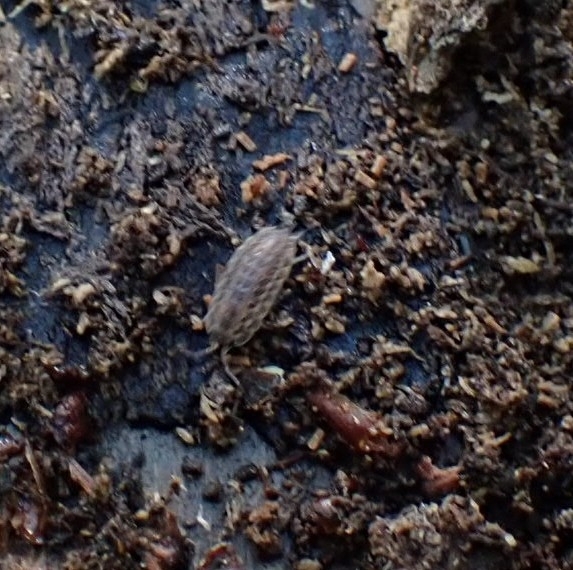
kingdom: Animalia
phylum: Arthropoda
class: Malacostraca
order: Isopoda
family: Trachelipodidae
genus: Trachelipus
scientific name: Trachelipus rathkii
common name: Isopod
